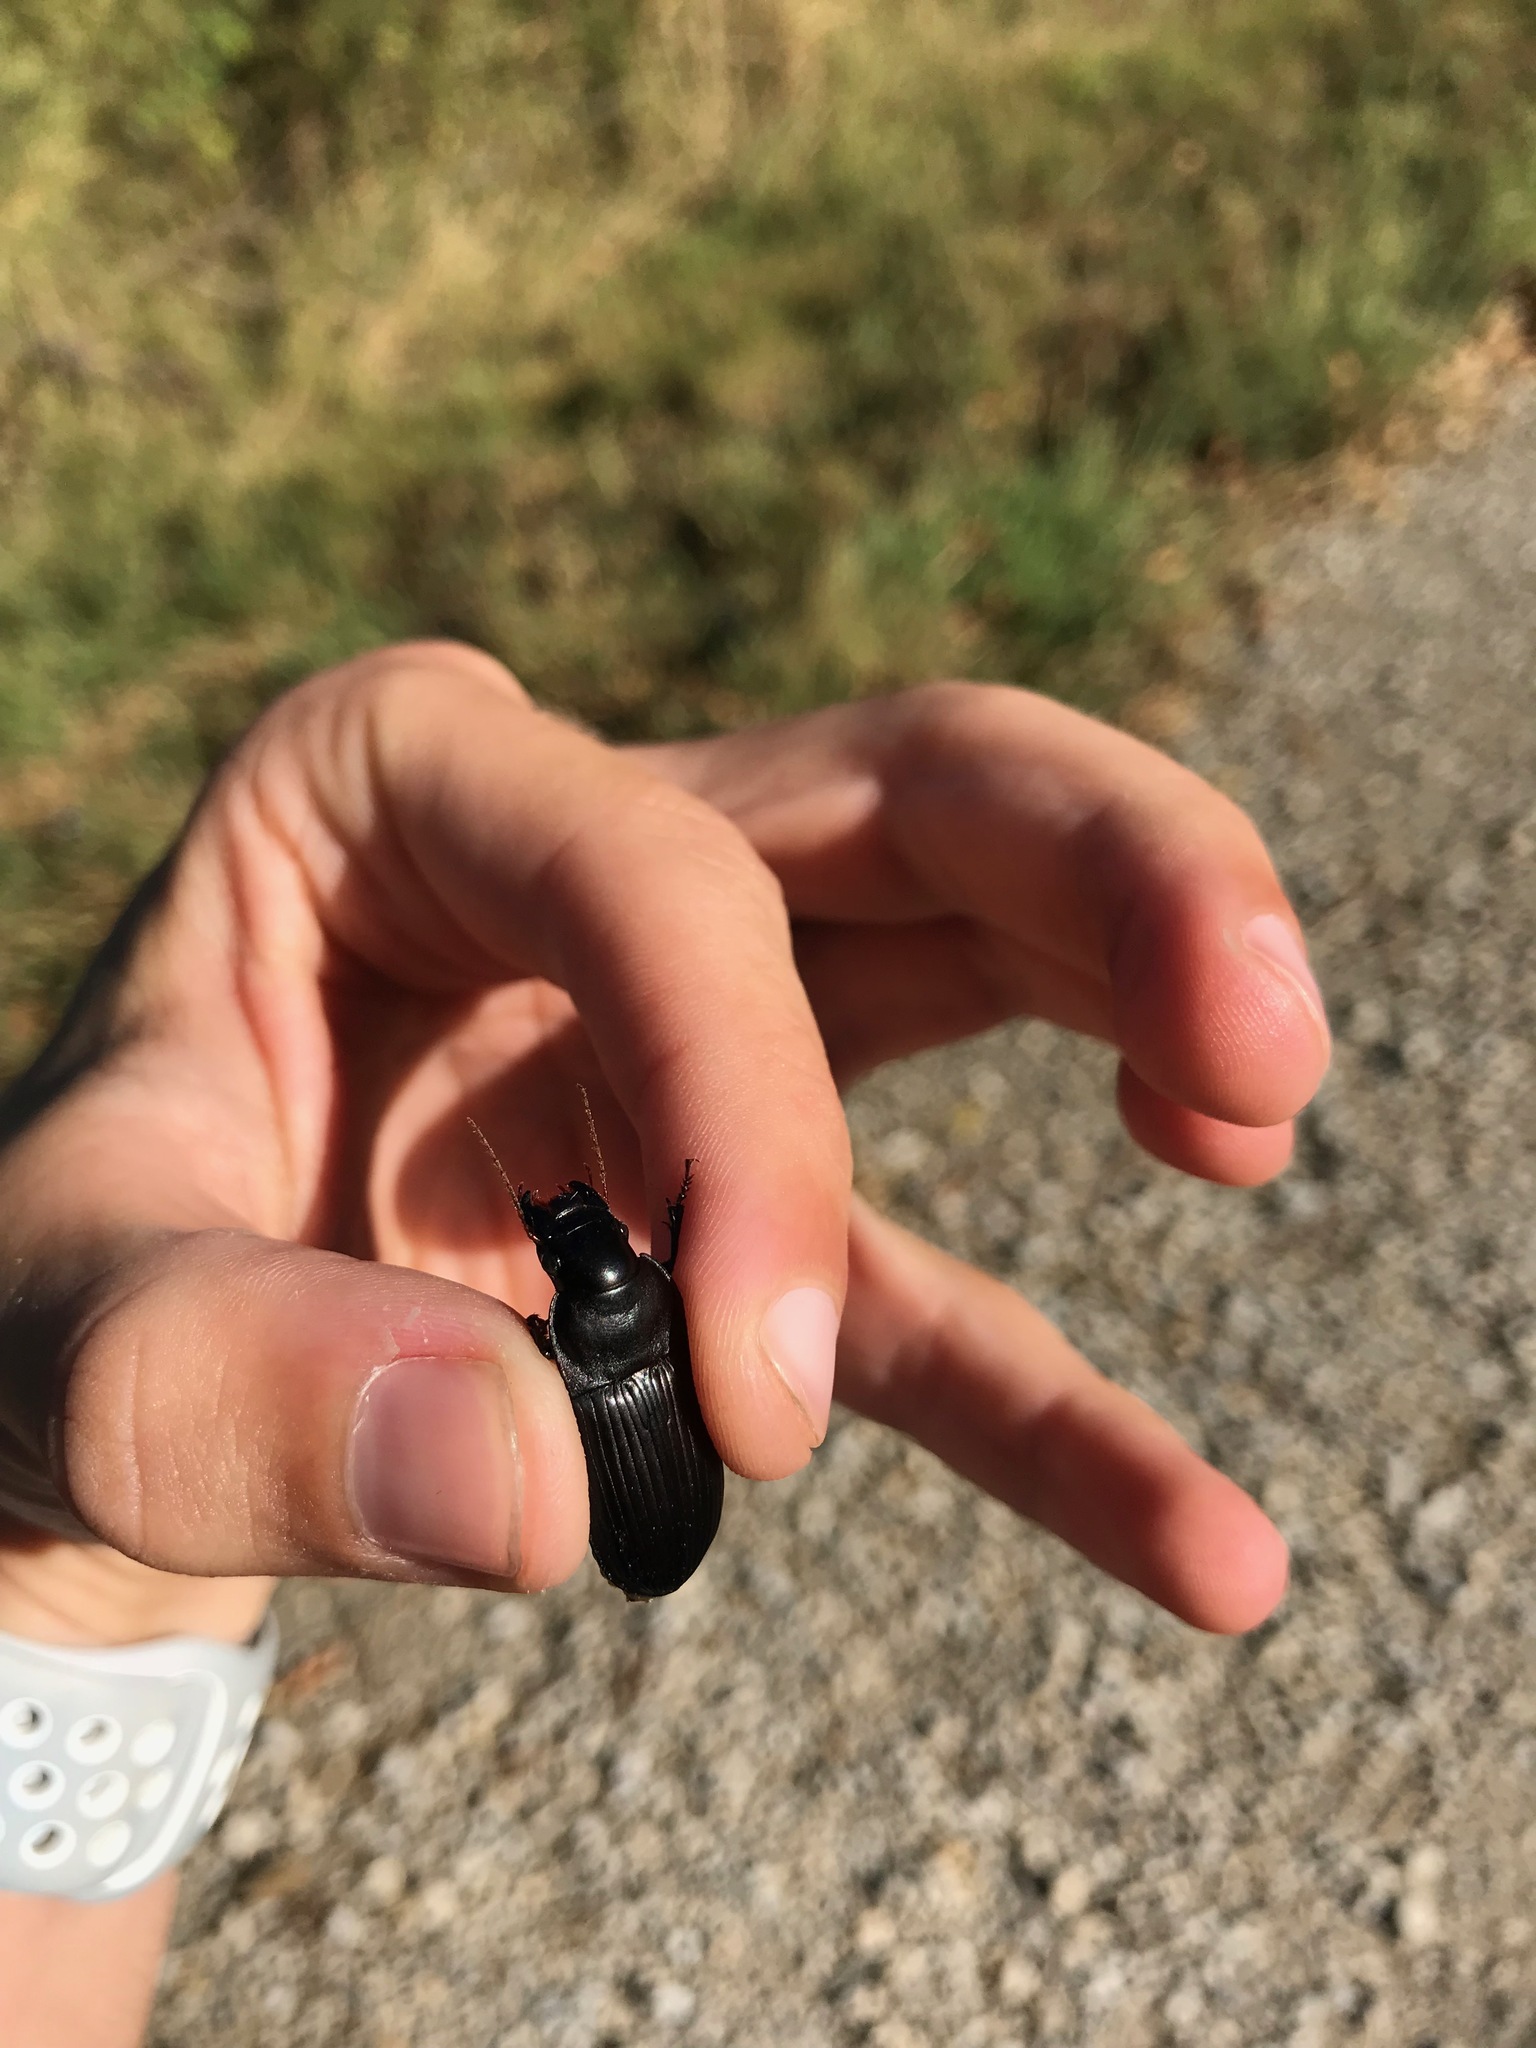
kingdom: Animalia
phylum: Arthropoda
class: Insecta
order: Coleoptera
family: Carabidae
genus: Harpalus
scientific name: Harpalus caliginosus
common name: Murky ground beetle
